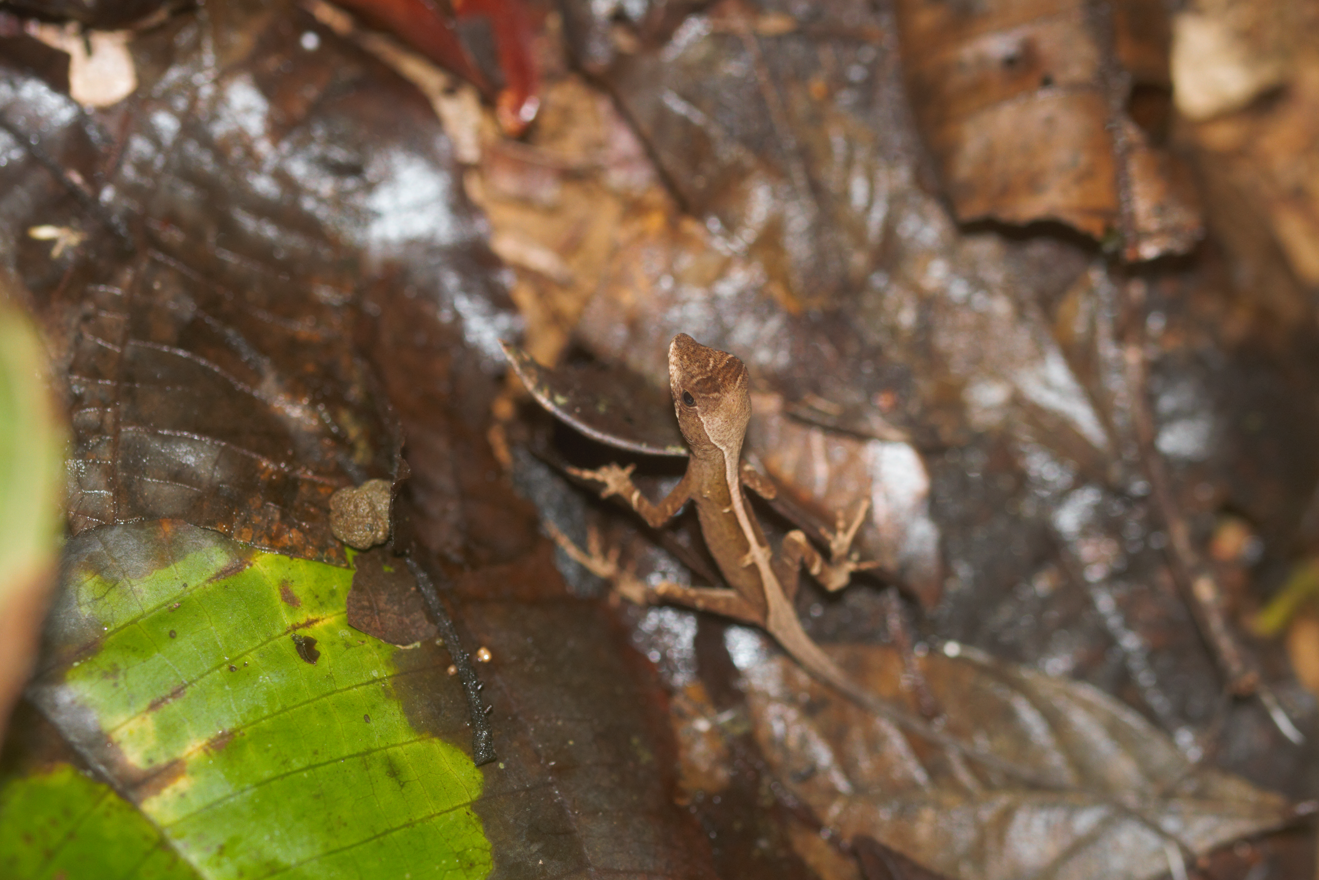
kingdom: Animalia
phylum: Chordata
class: Squamata
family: Dactyloidae
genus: Anolis
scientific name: Anolis chrysolepis
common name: Goldenscale anole
